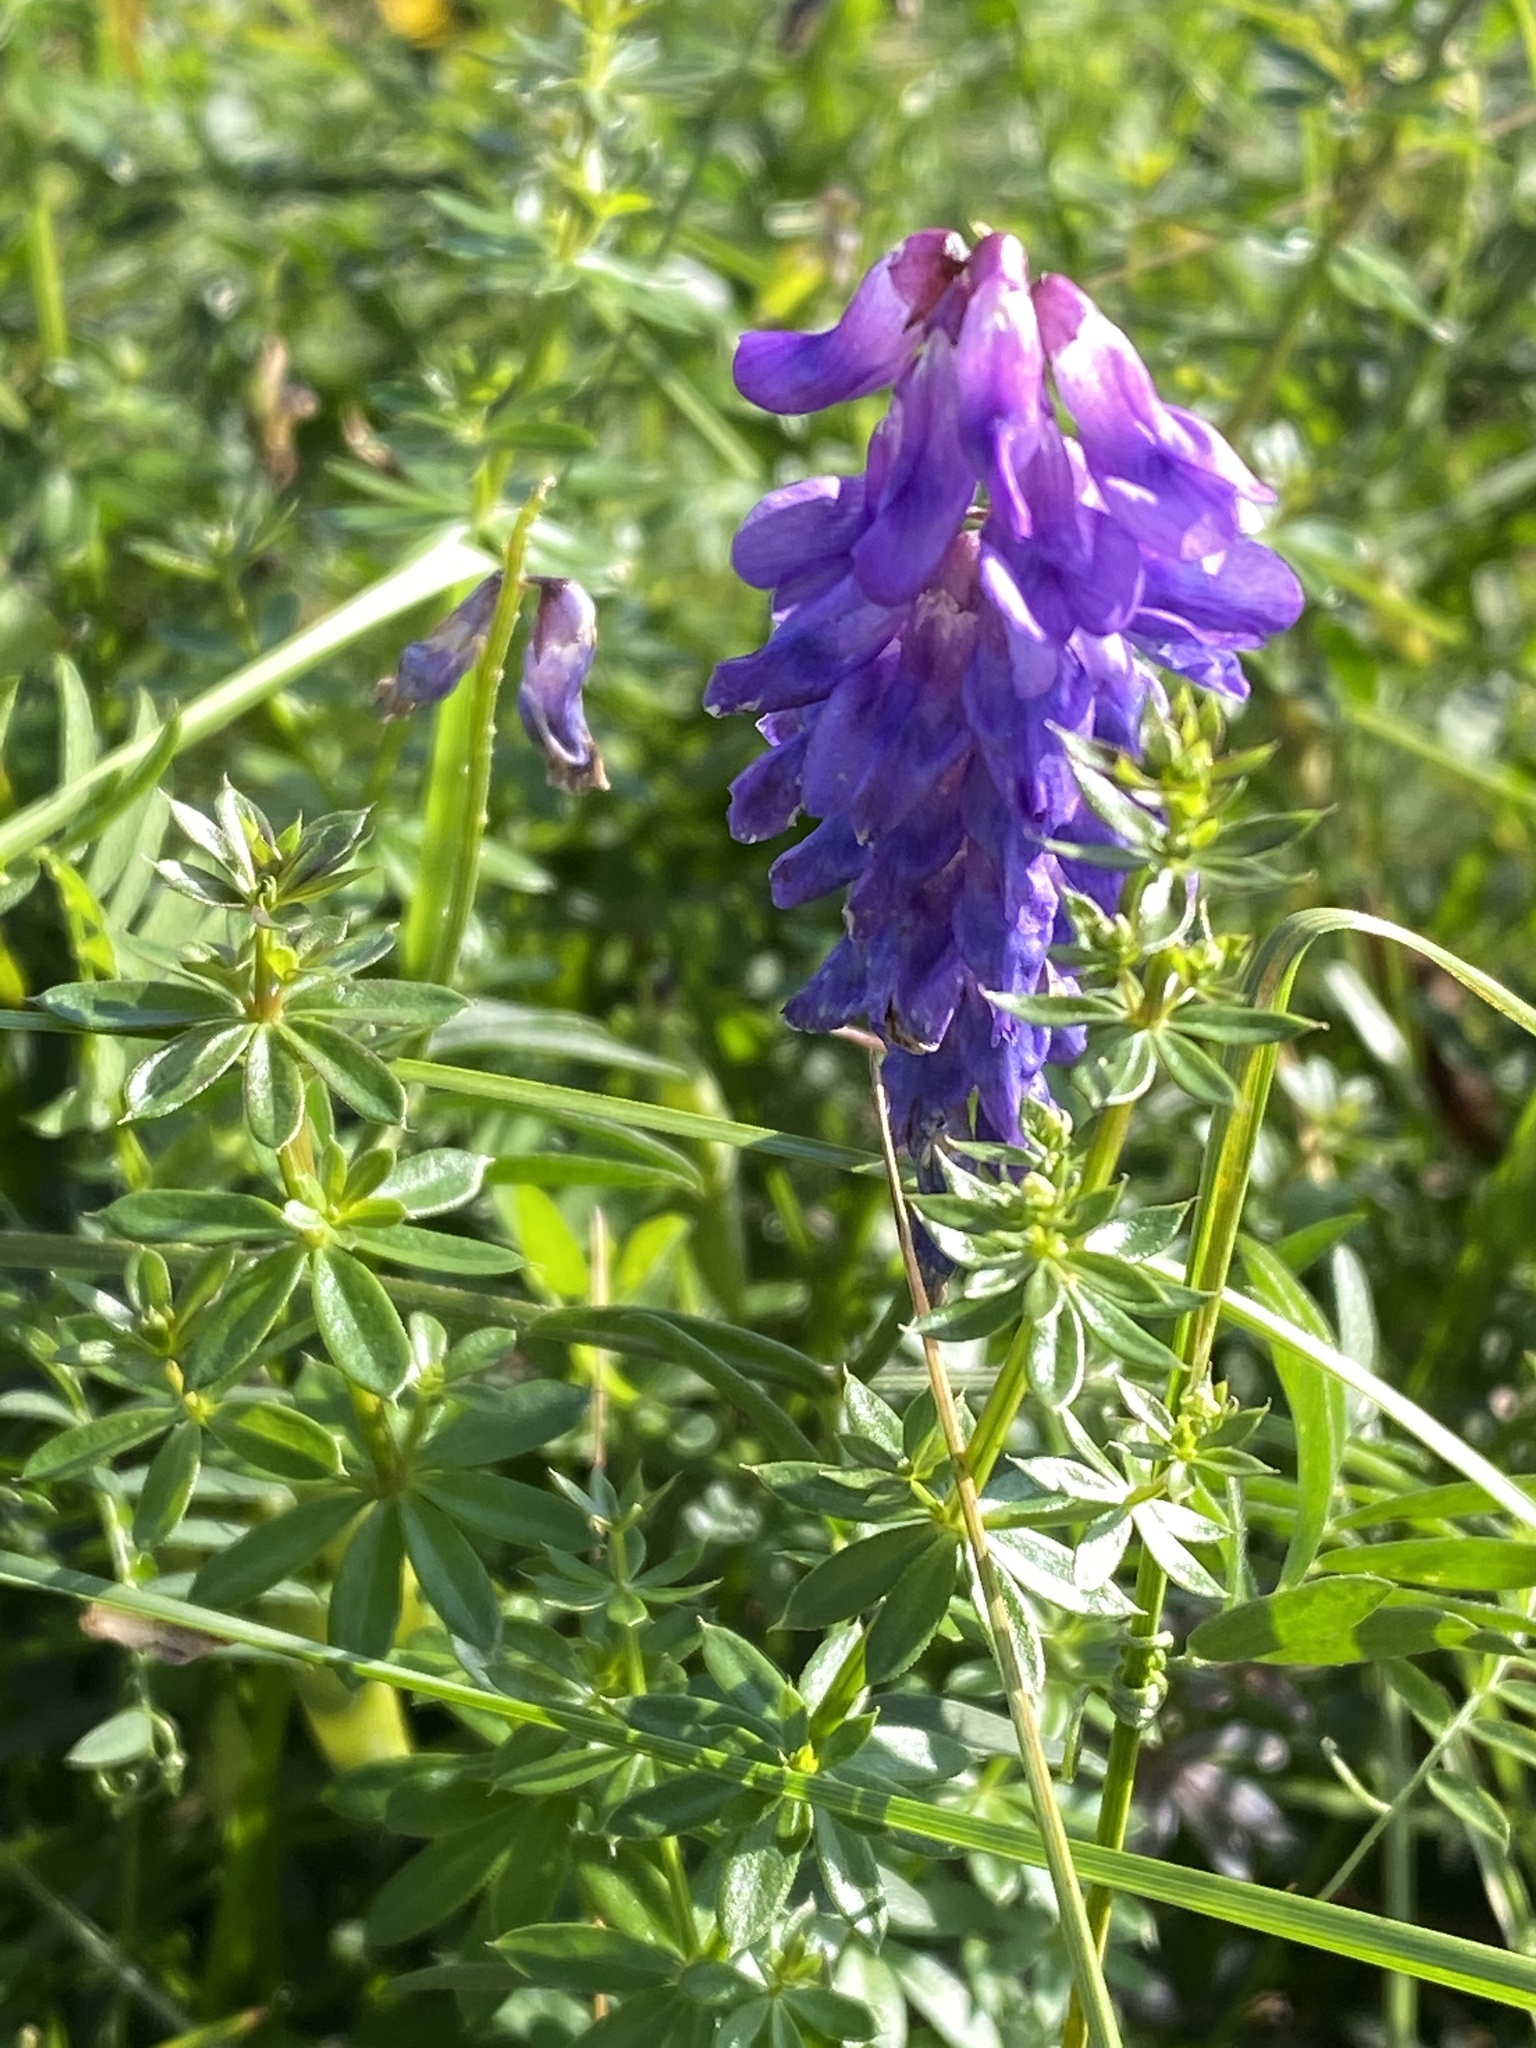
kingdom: Plantae
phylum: Tracheophyta
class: Magnoliopsida
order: Fabales
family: Fabaceae
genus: Vicia
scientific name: Vicia cracca
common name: Bird vetch
